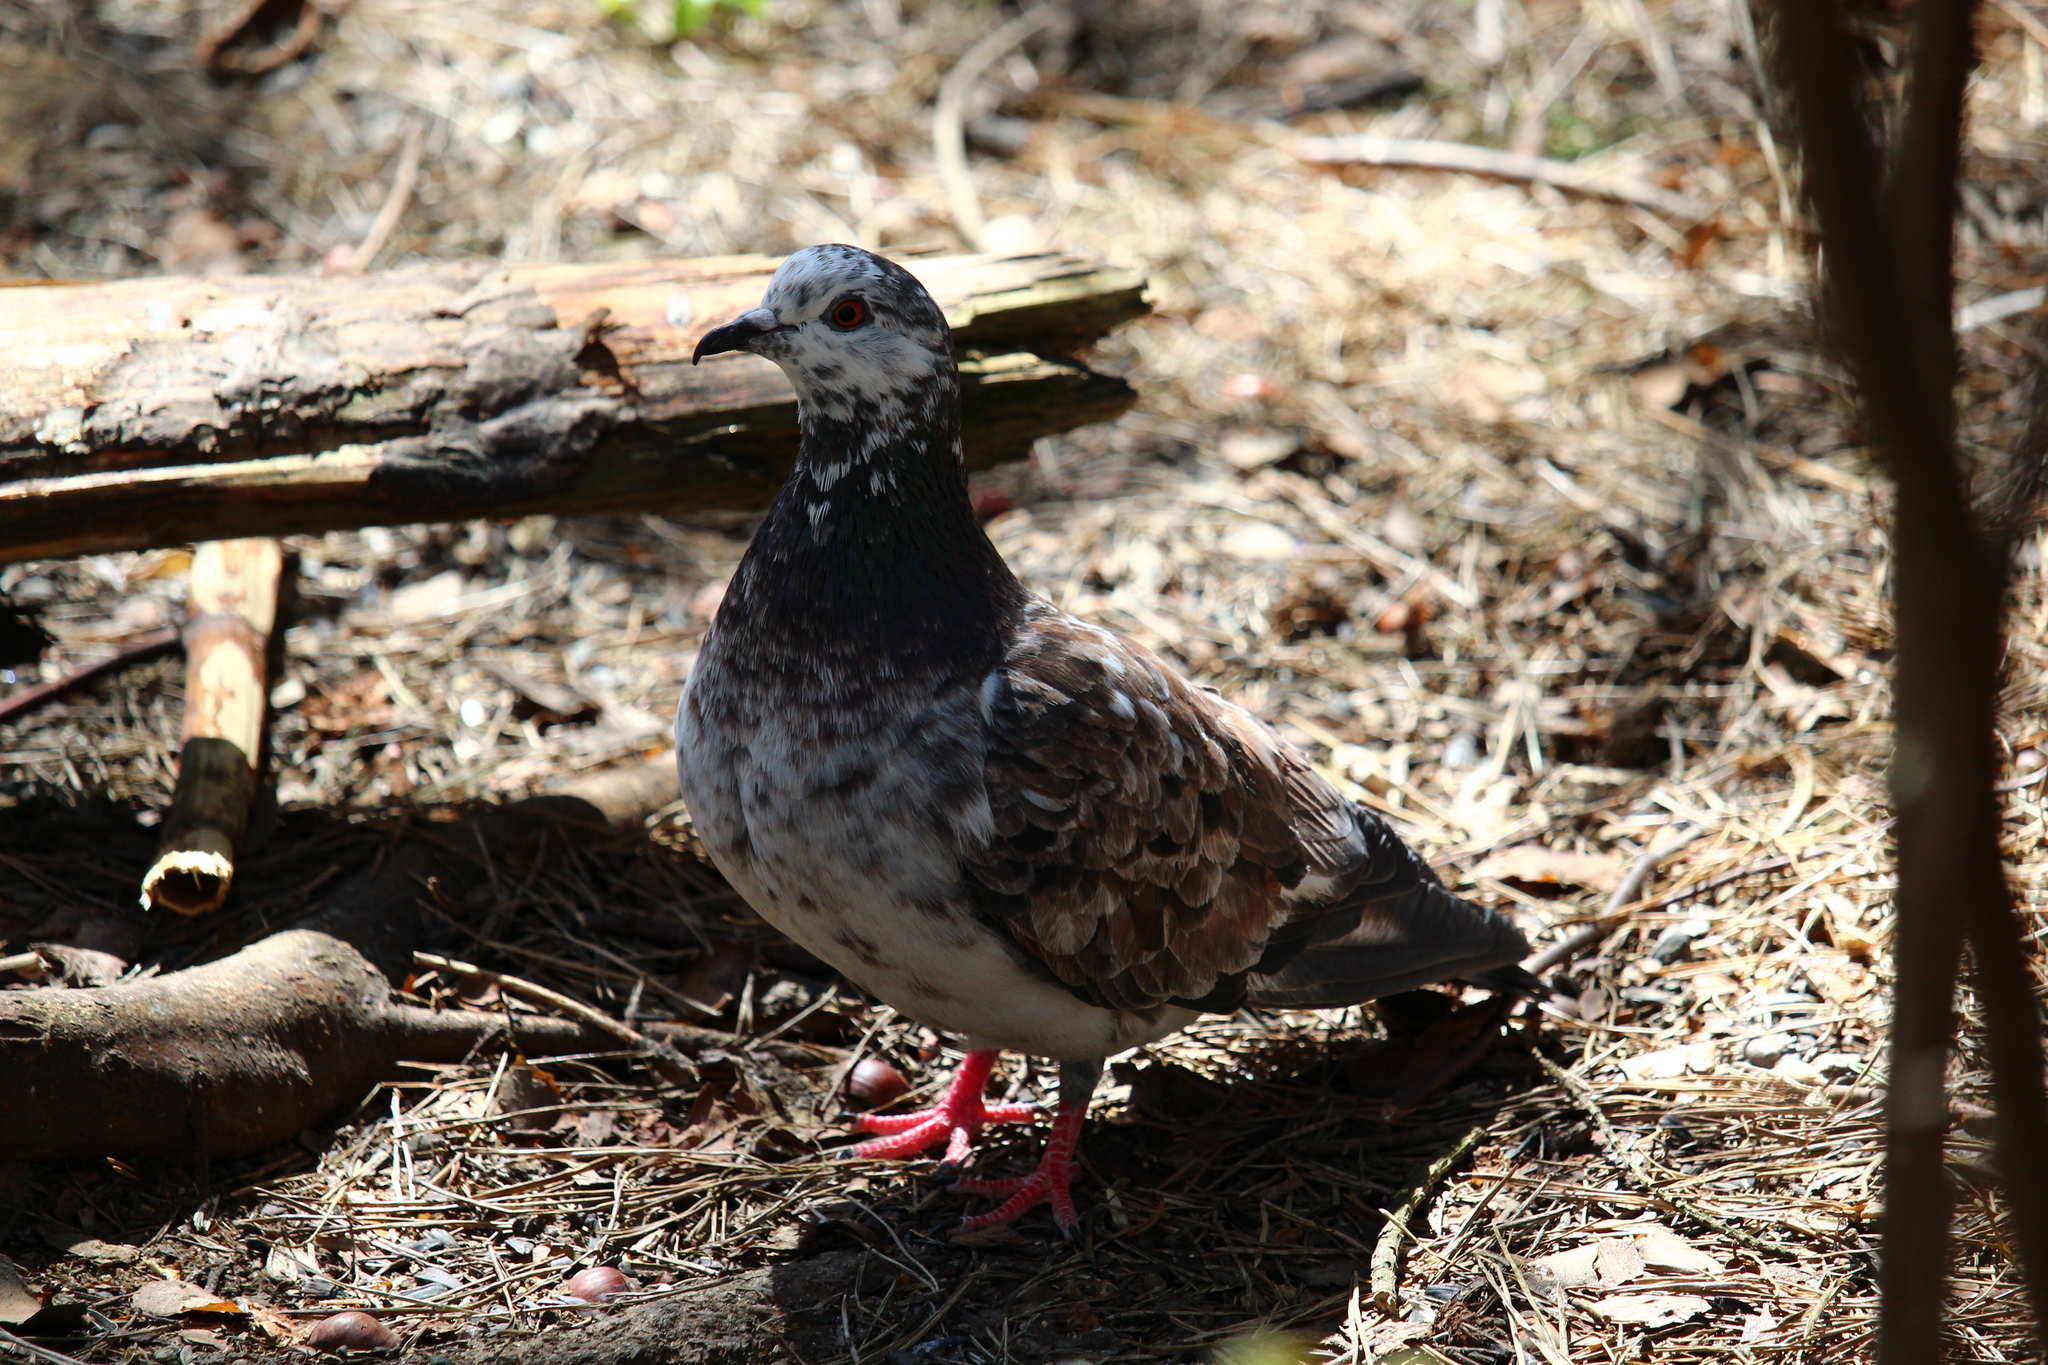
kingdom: Animalia
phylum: Chordata
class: Aves
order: Columbiformes
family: Columbidae
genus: Columba
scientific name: Columba livia
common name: Rock pigeon
